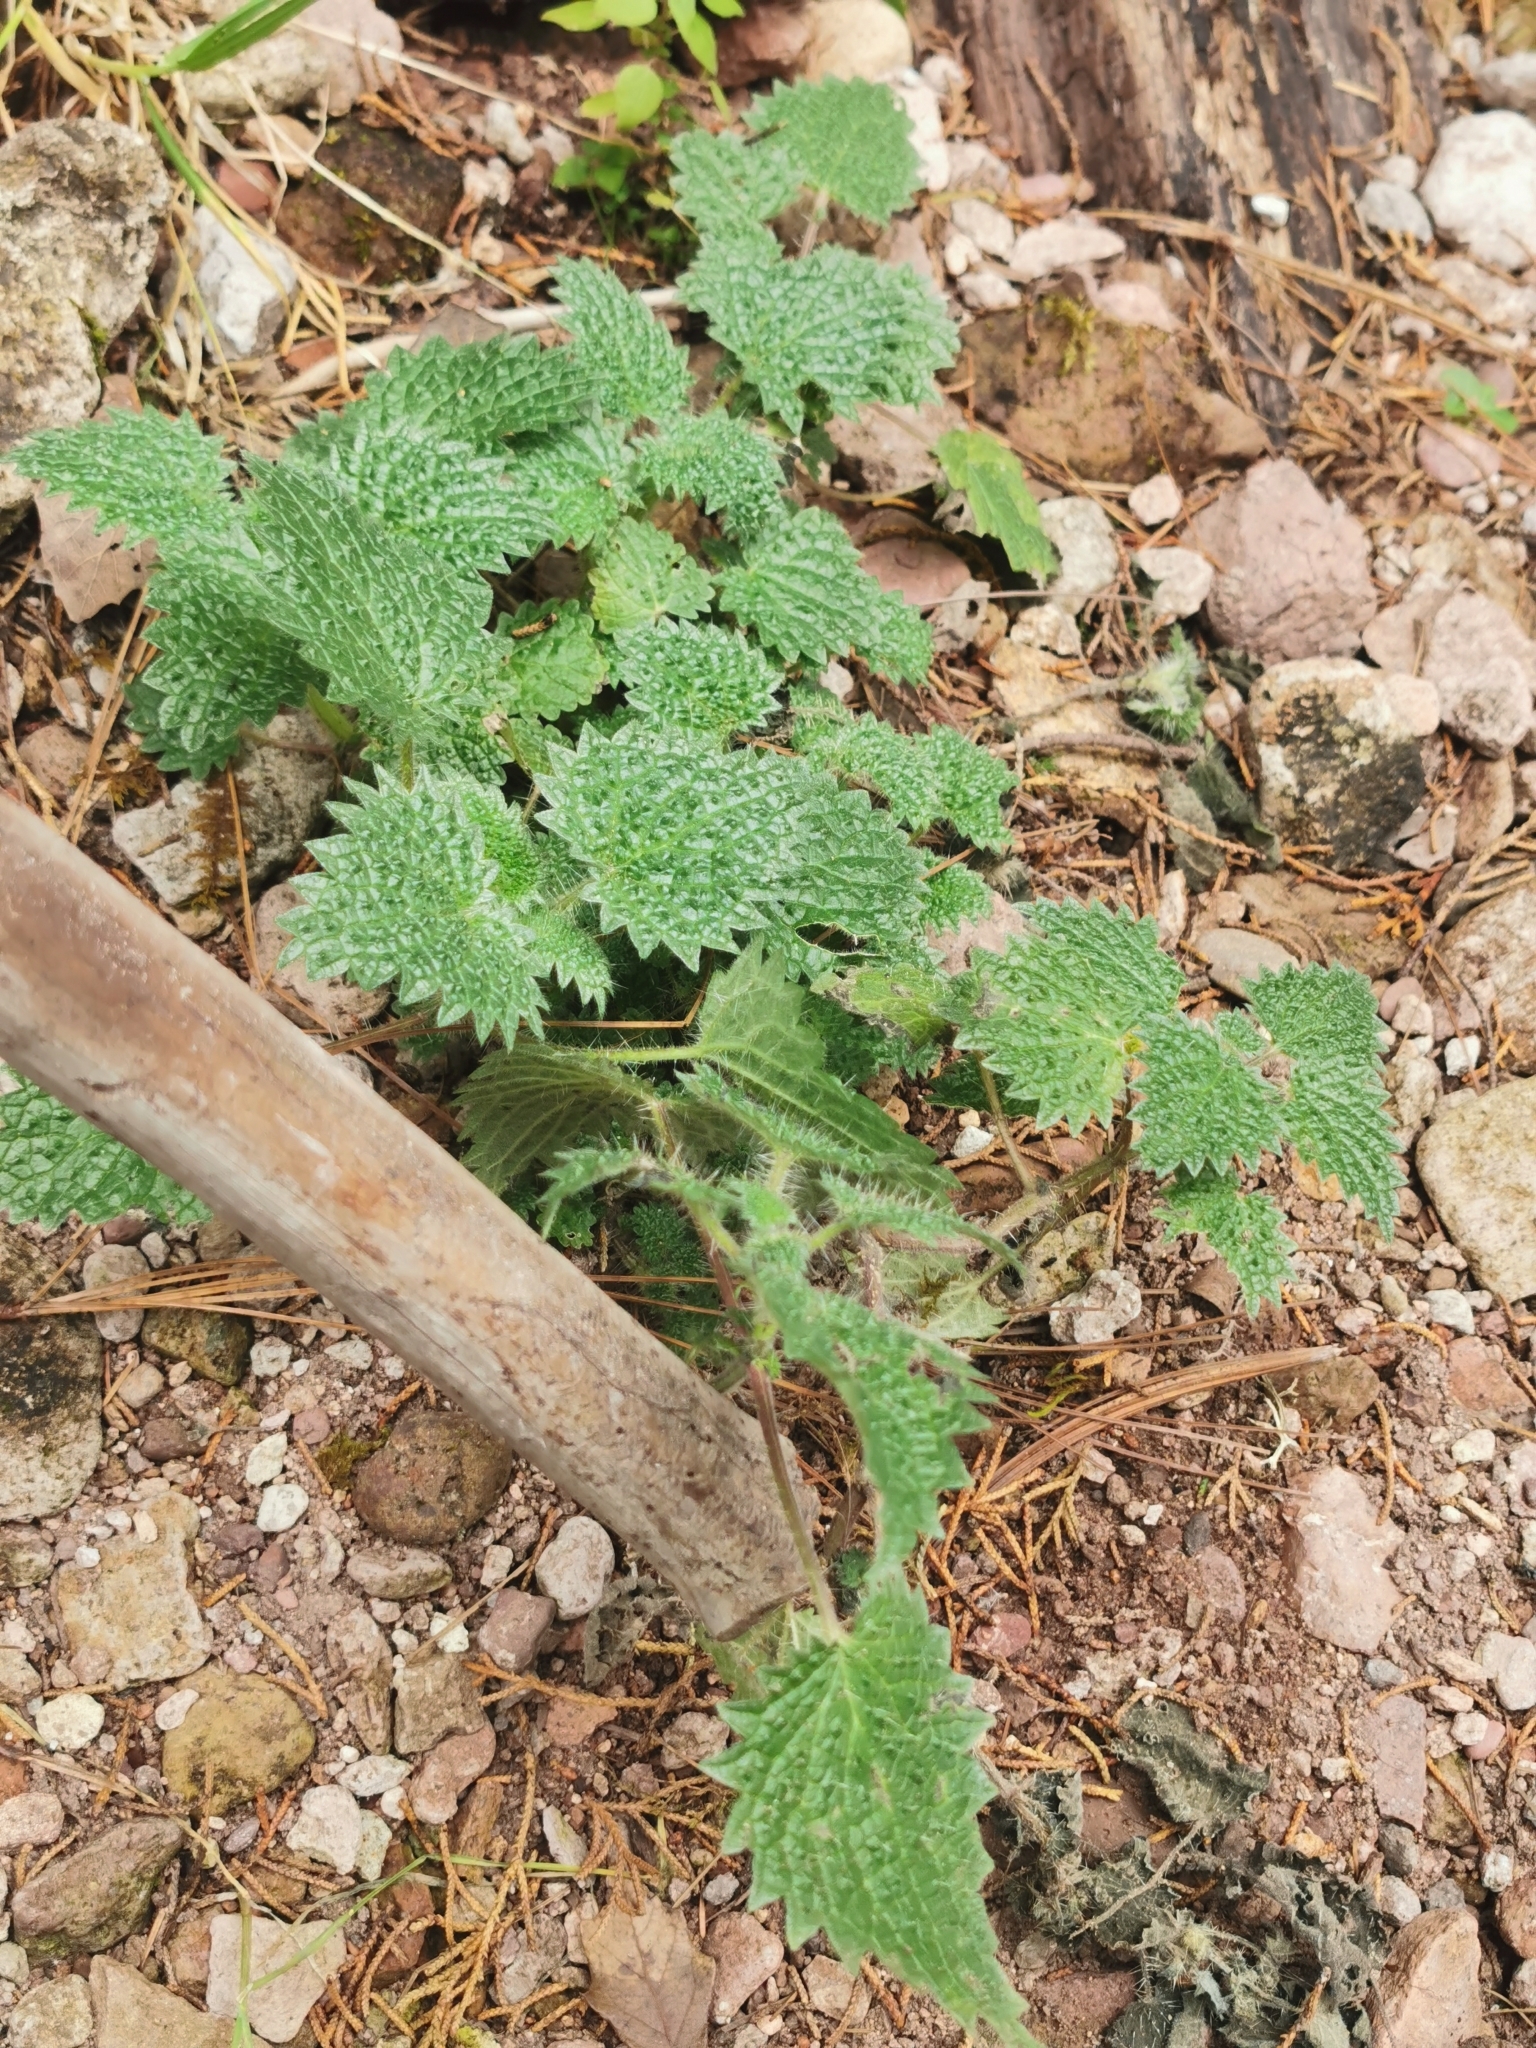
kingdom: Plantae
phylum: Tracheophyta
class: Magnoliopsida
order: Rosales
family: Urticaceae
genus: Urtica
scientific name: Urtica gracilenta
